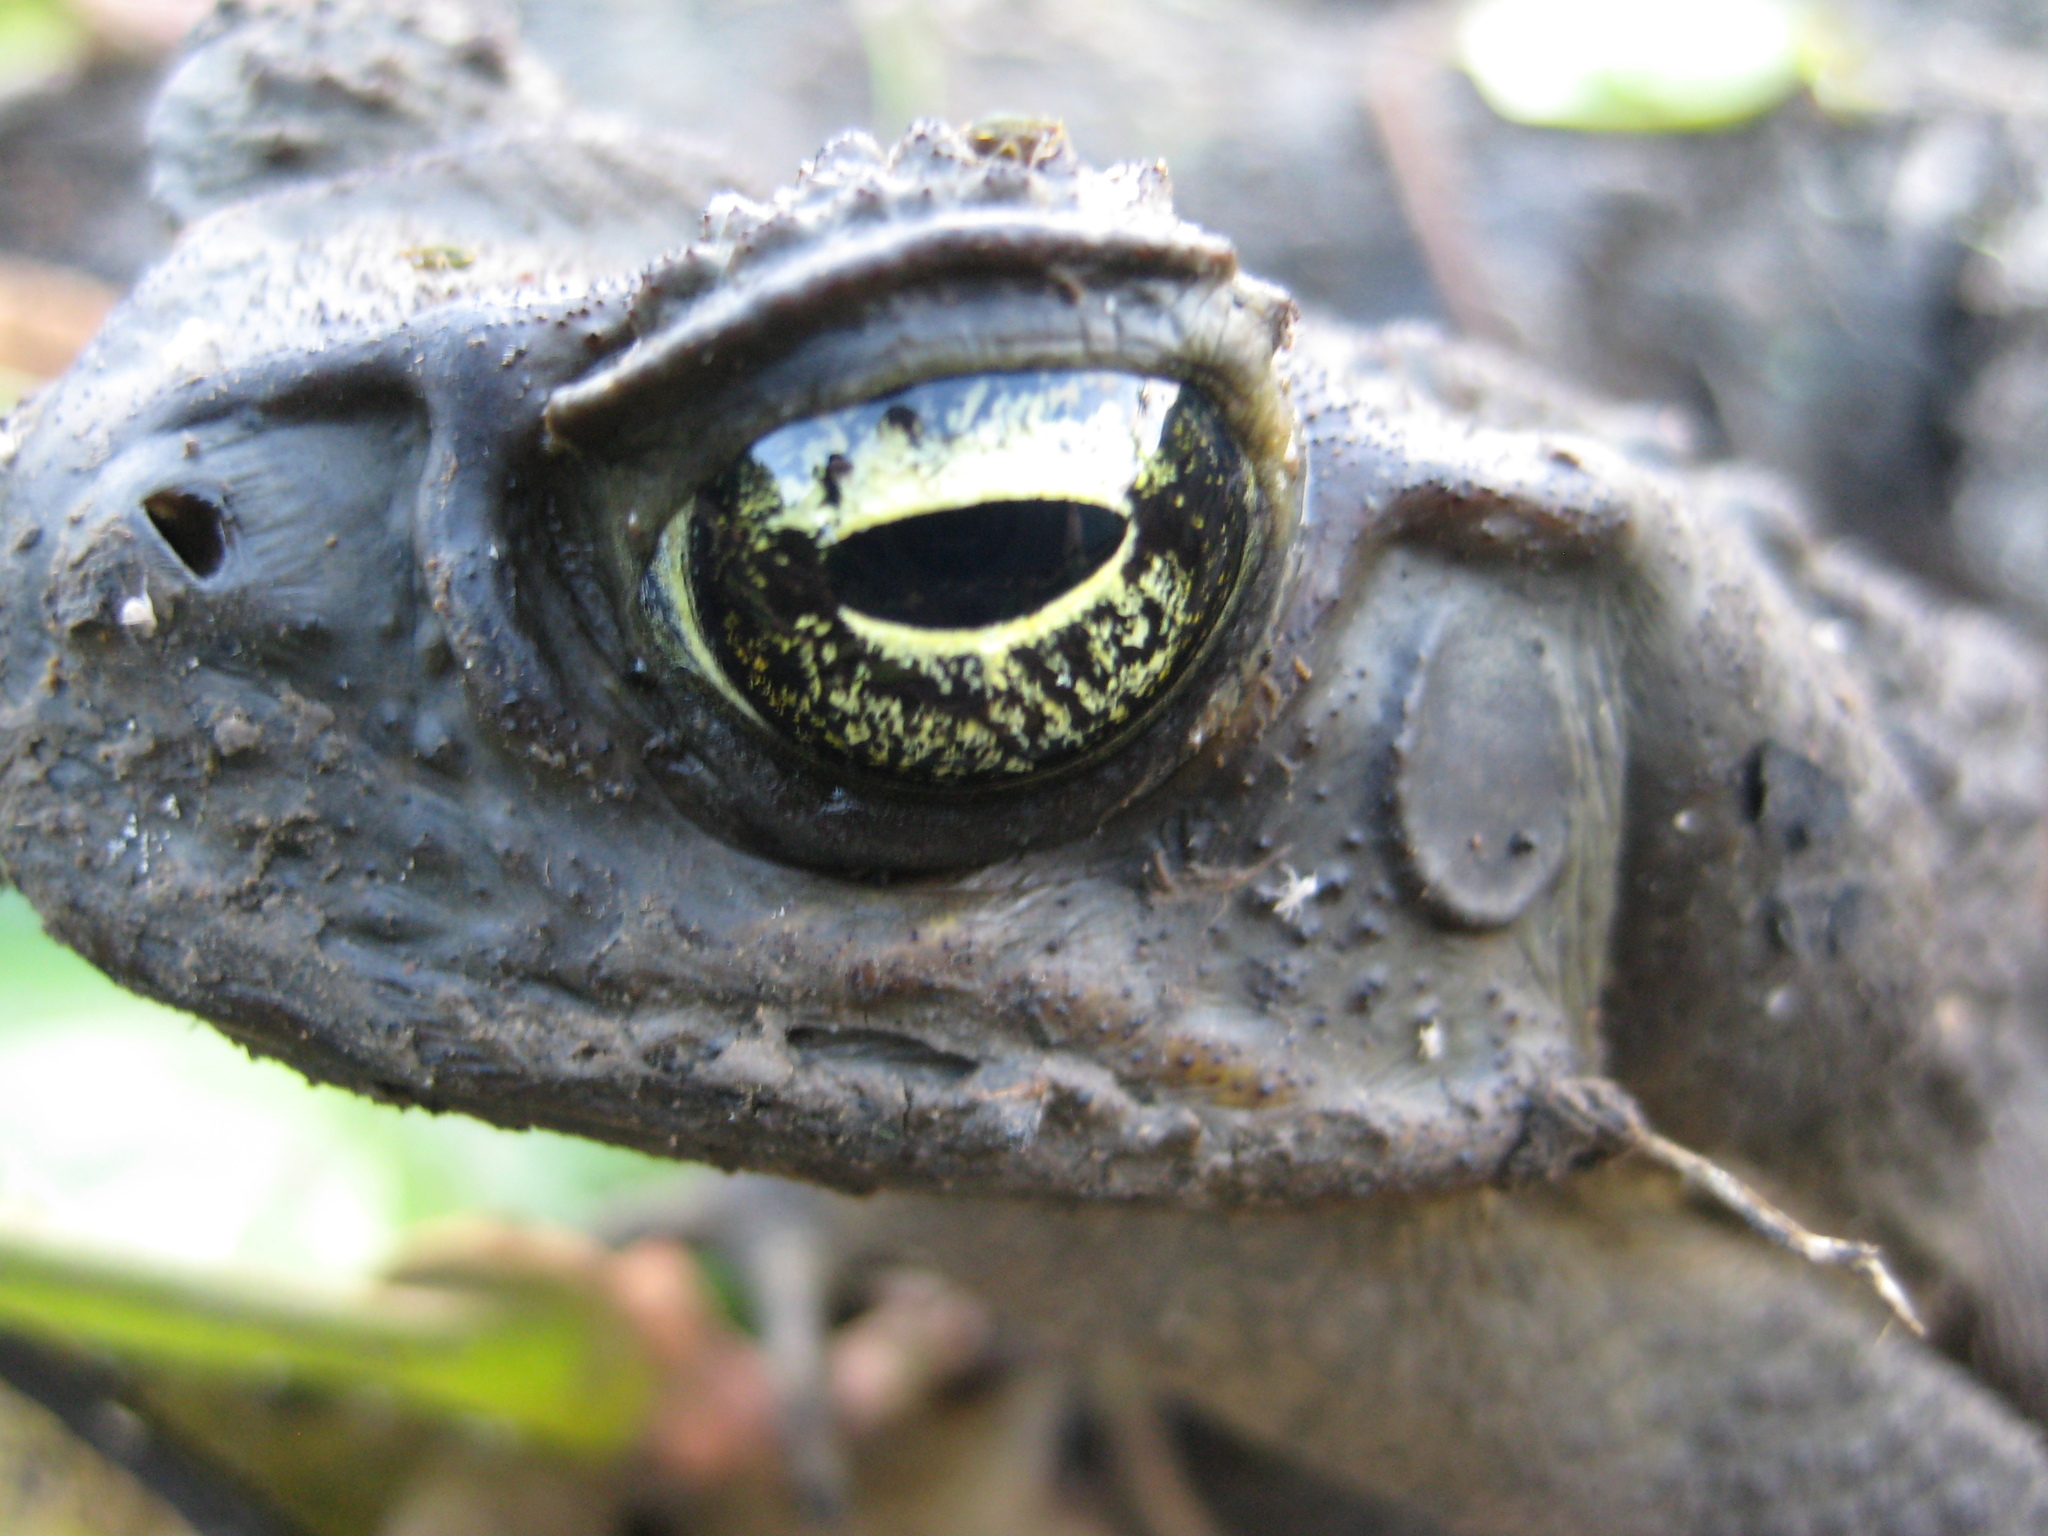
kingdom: Animalia
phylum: Chordata
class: Amphibia
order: Anura
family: Bufonidae
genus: Rhinella
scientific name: Rhinella marina
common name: Cane toad
